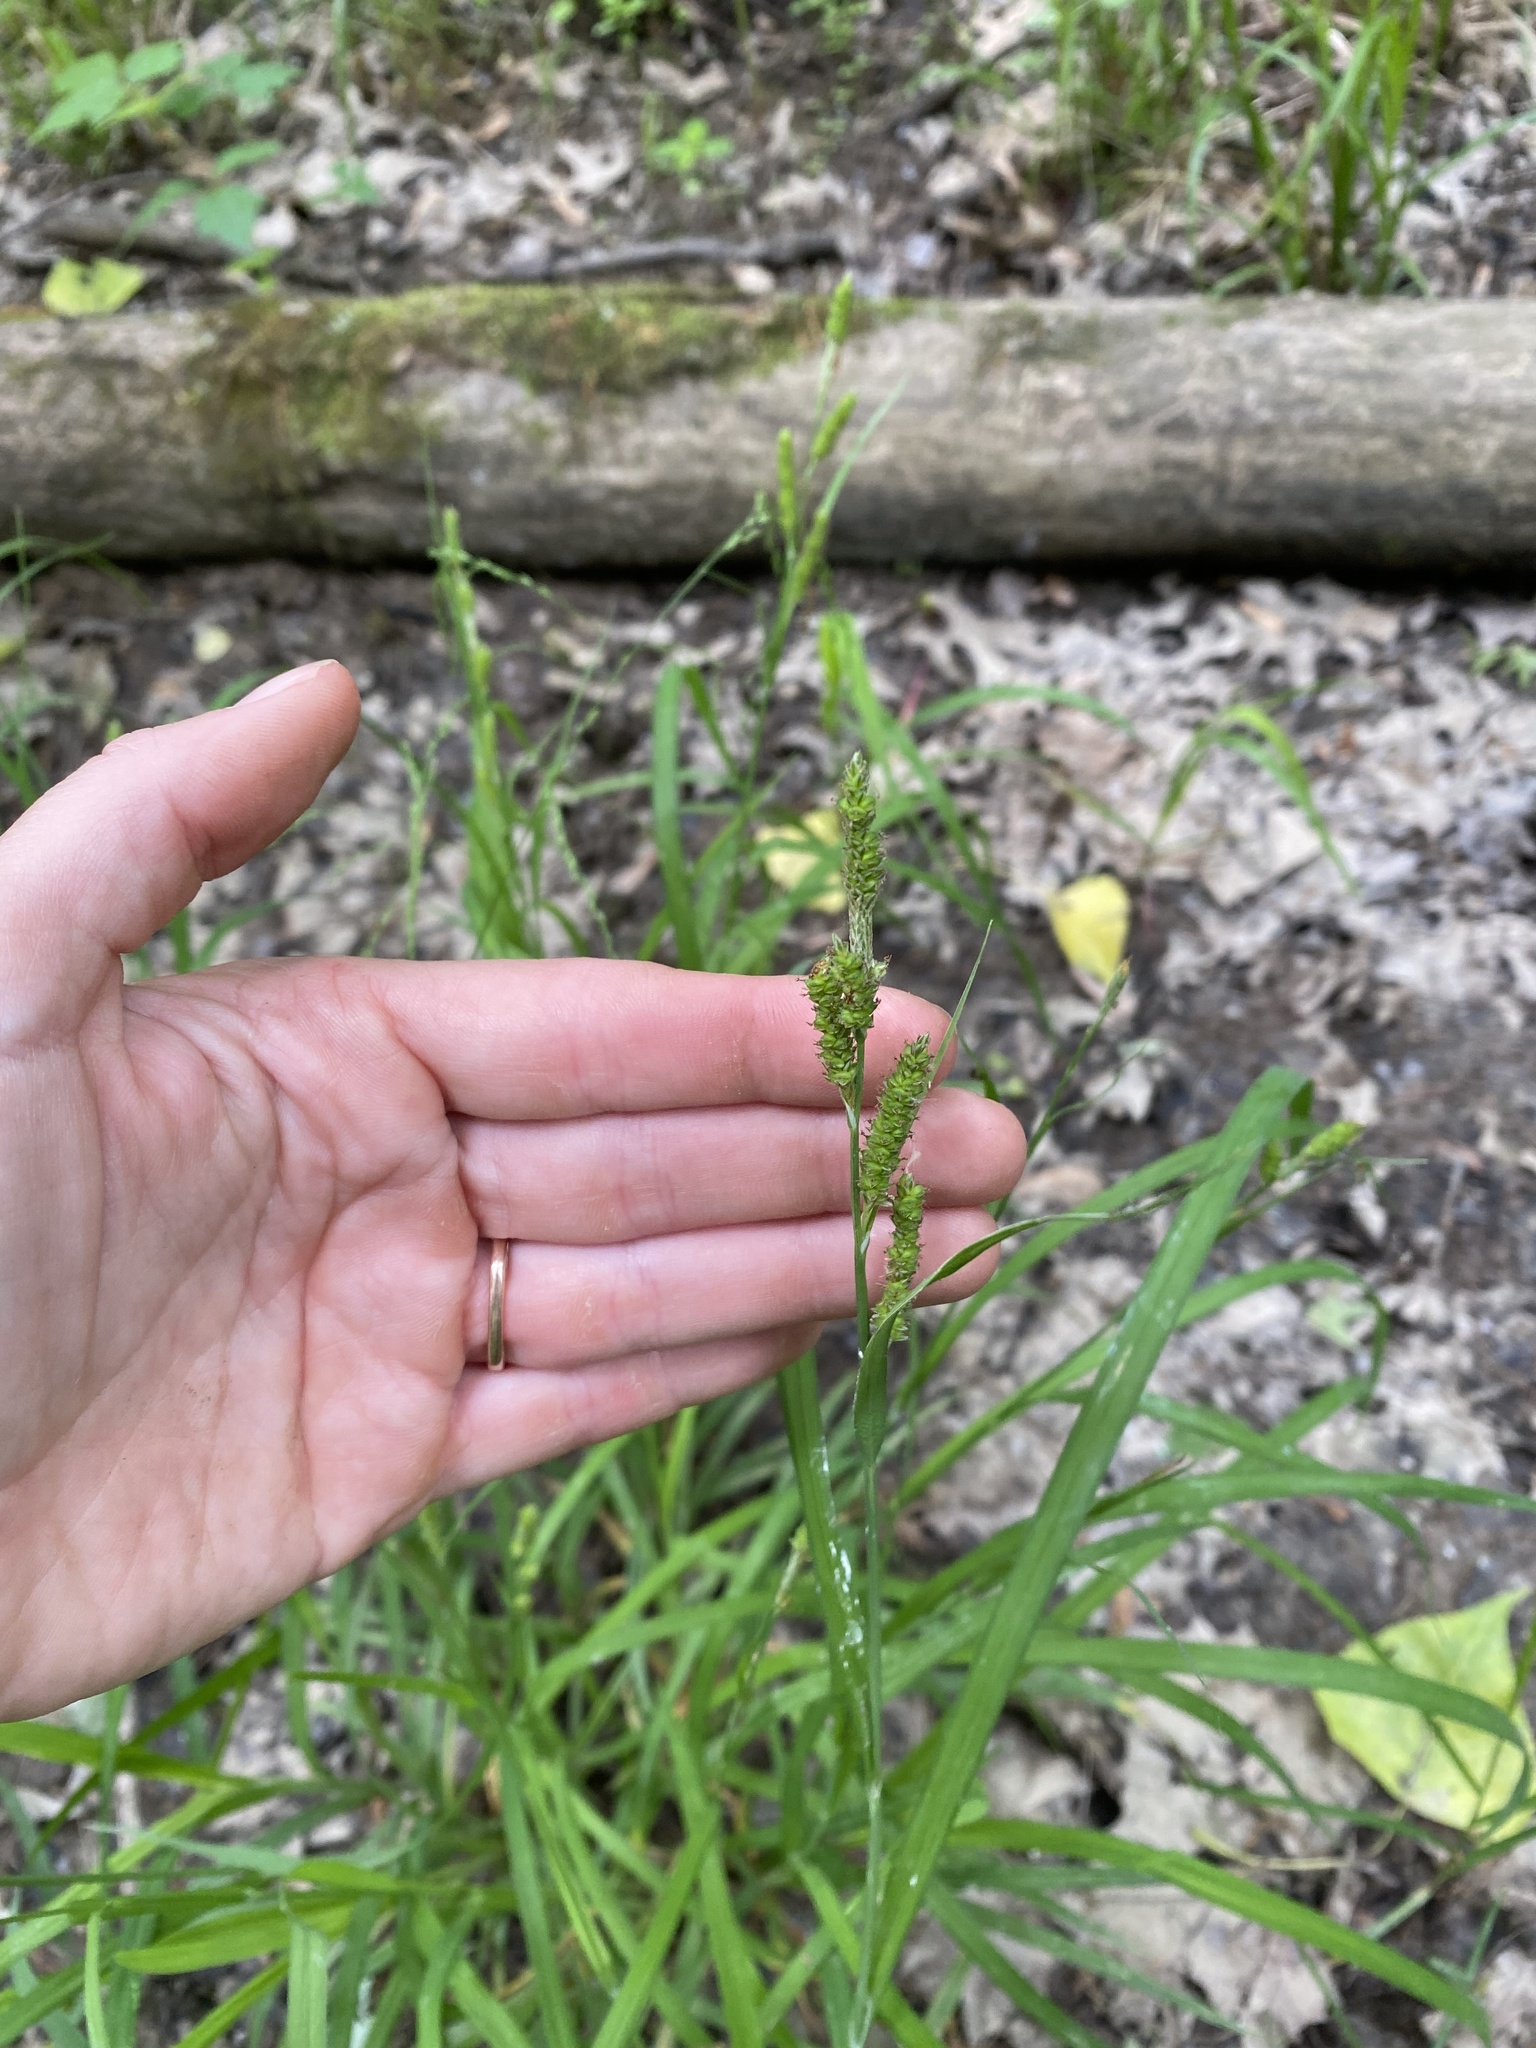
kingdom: Plantae
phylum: Tracheophyta
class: Liliopsida
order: Poales
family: Cyperaceae
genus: Carex
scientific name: Carex shortiana
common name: Short's sedge
